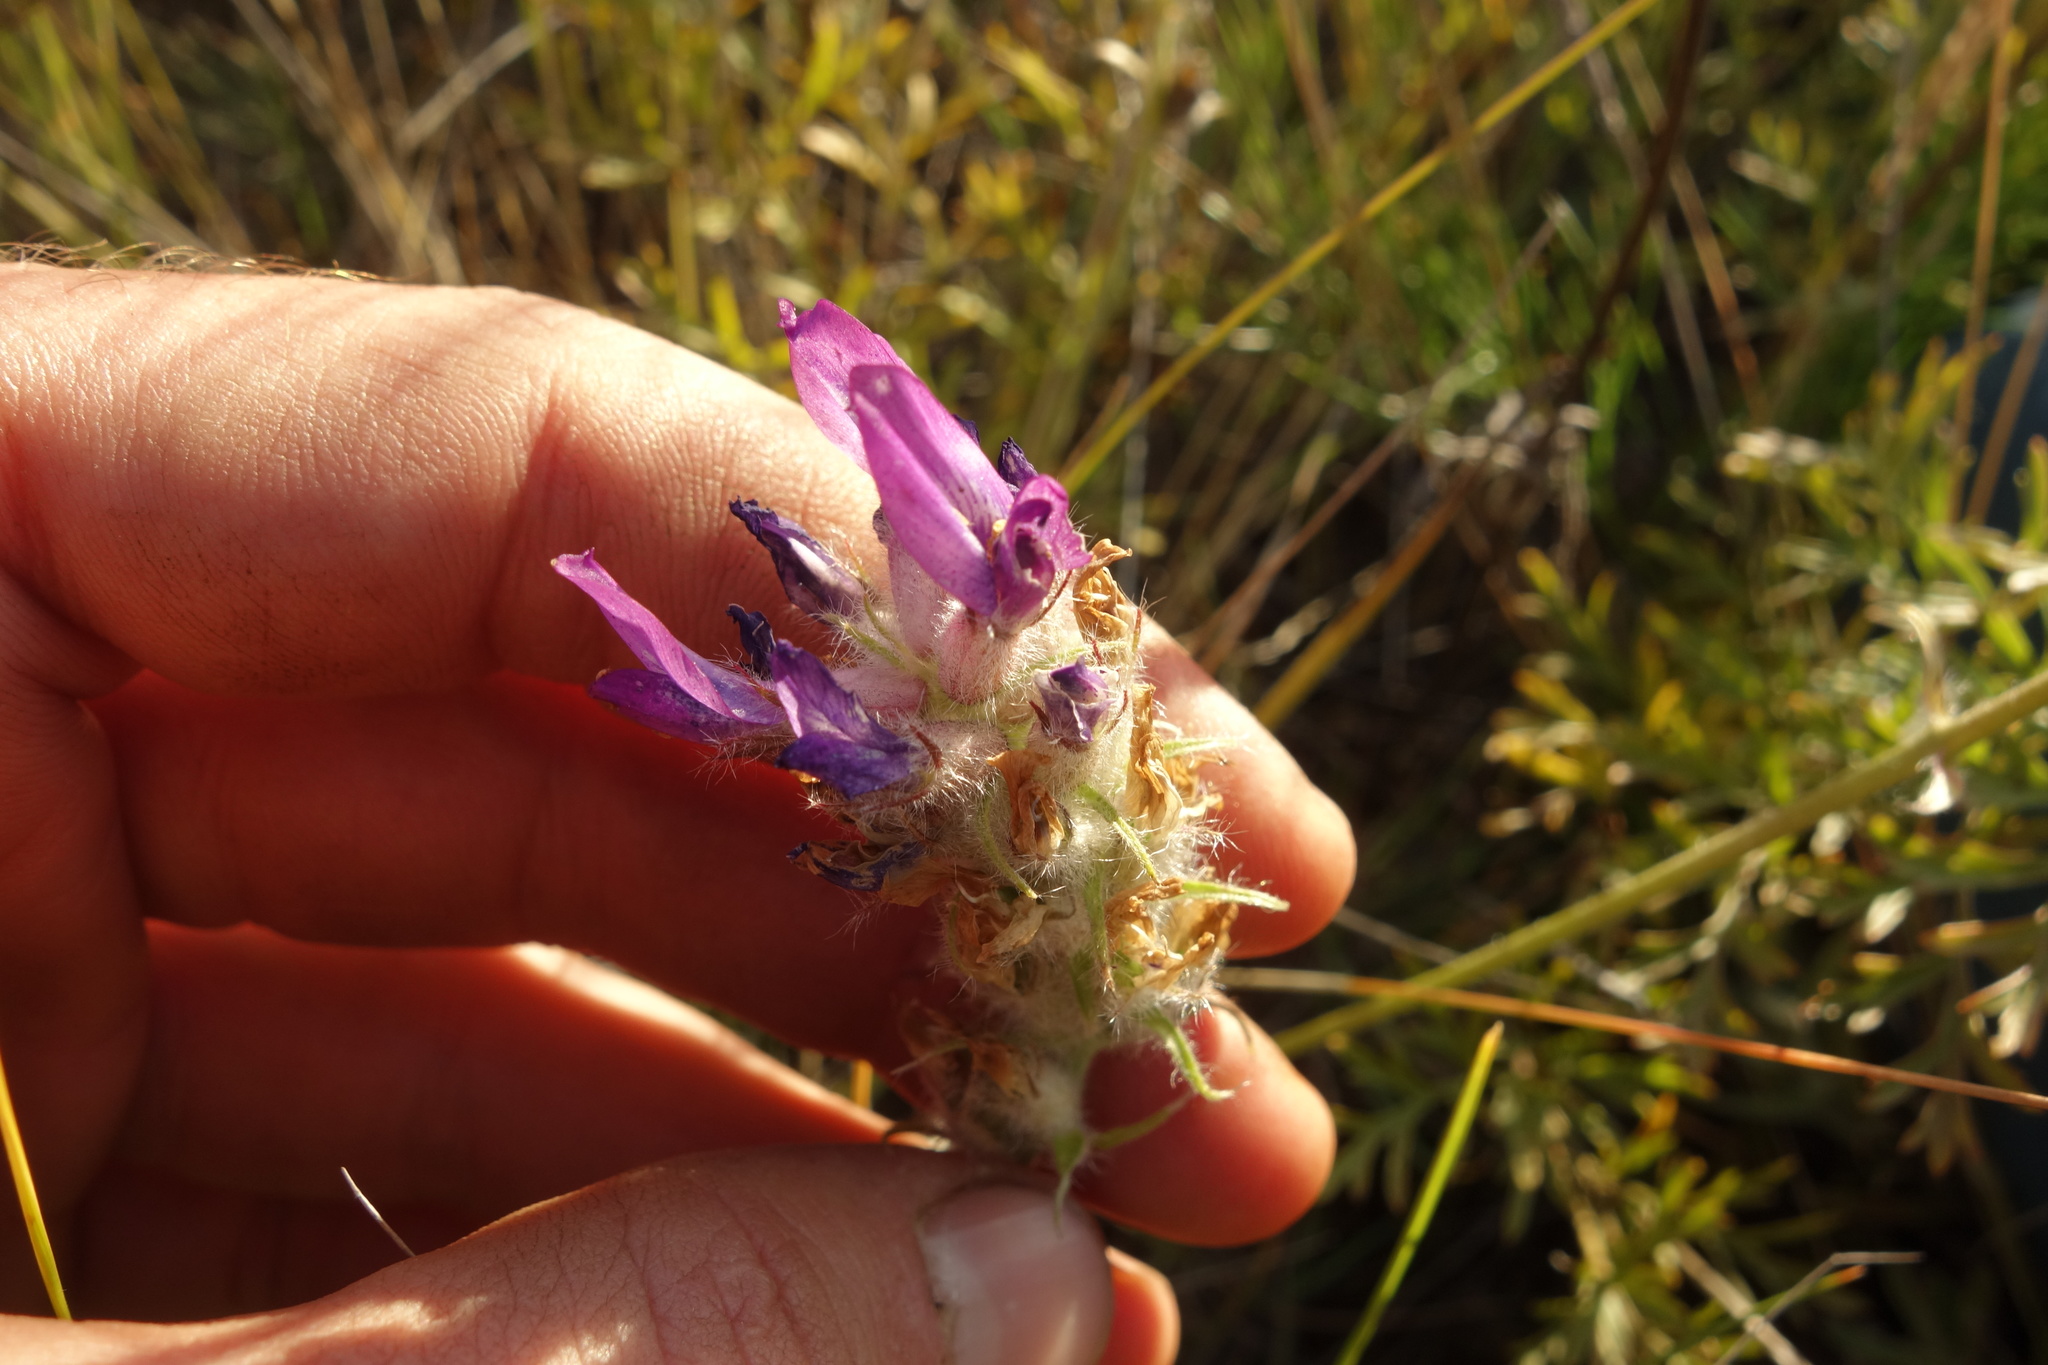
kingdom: Plantae
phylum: Tracheophyta
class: Magnoliopsida
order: Fabales
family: Fabaceae
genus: Oxytropis
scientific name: Oxytropis turczaninovii
